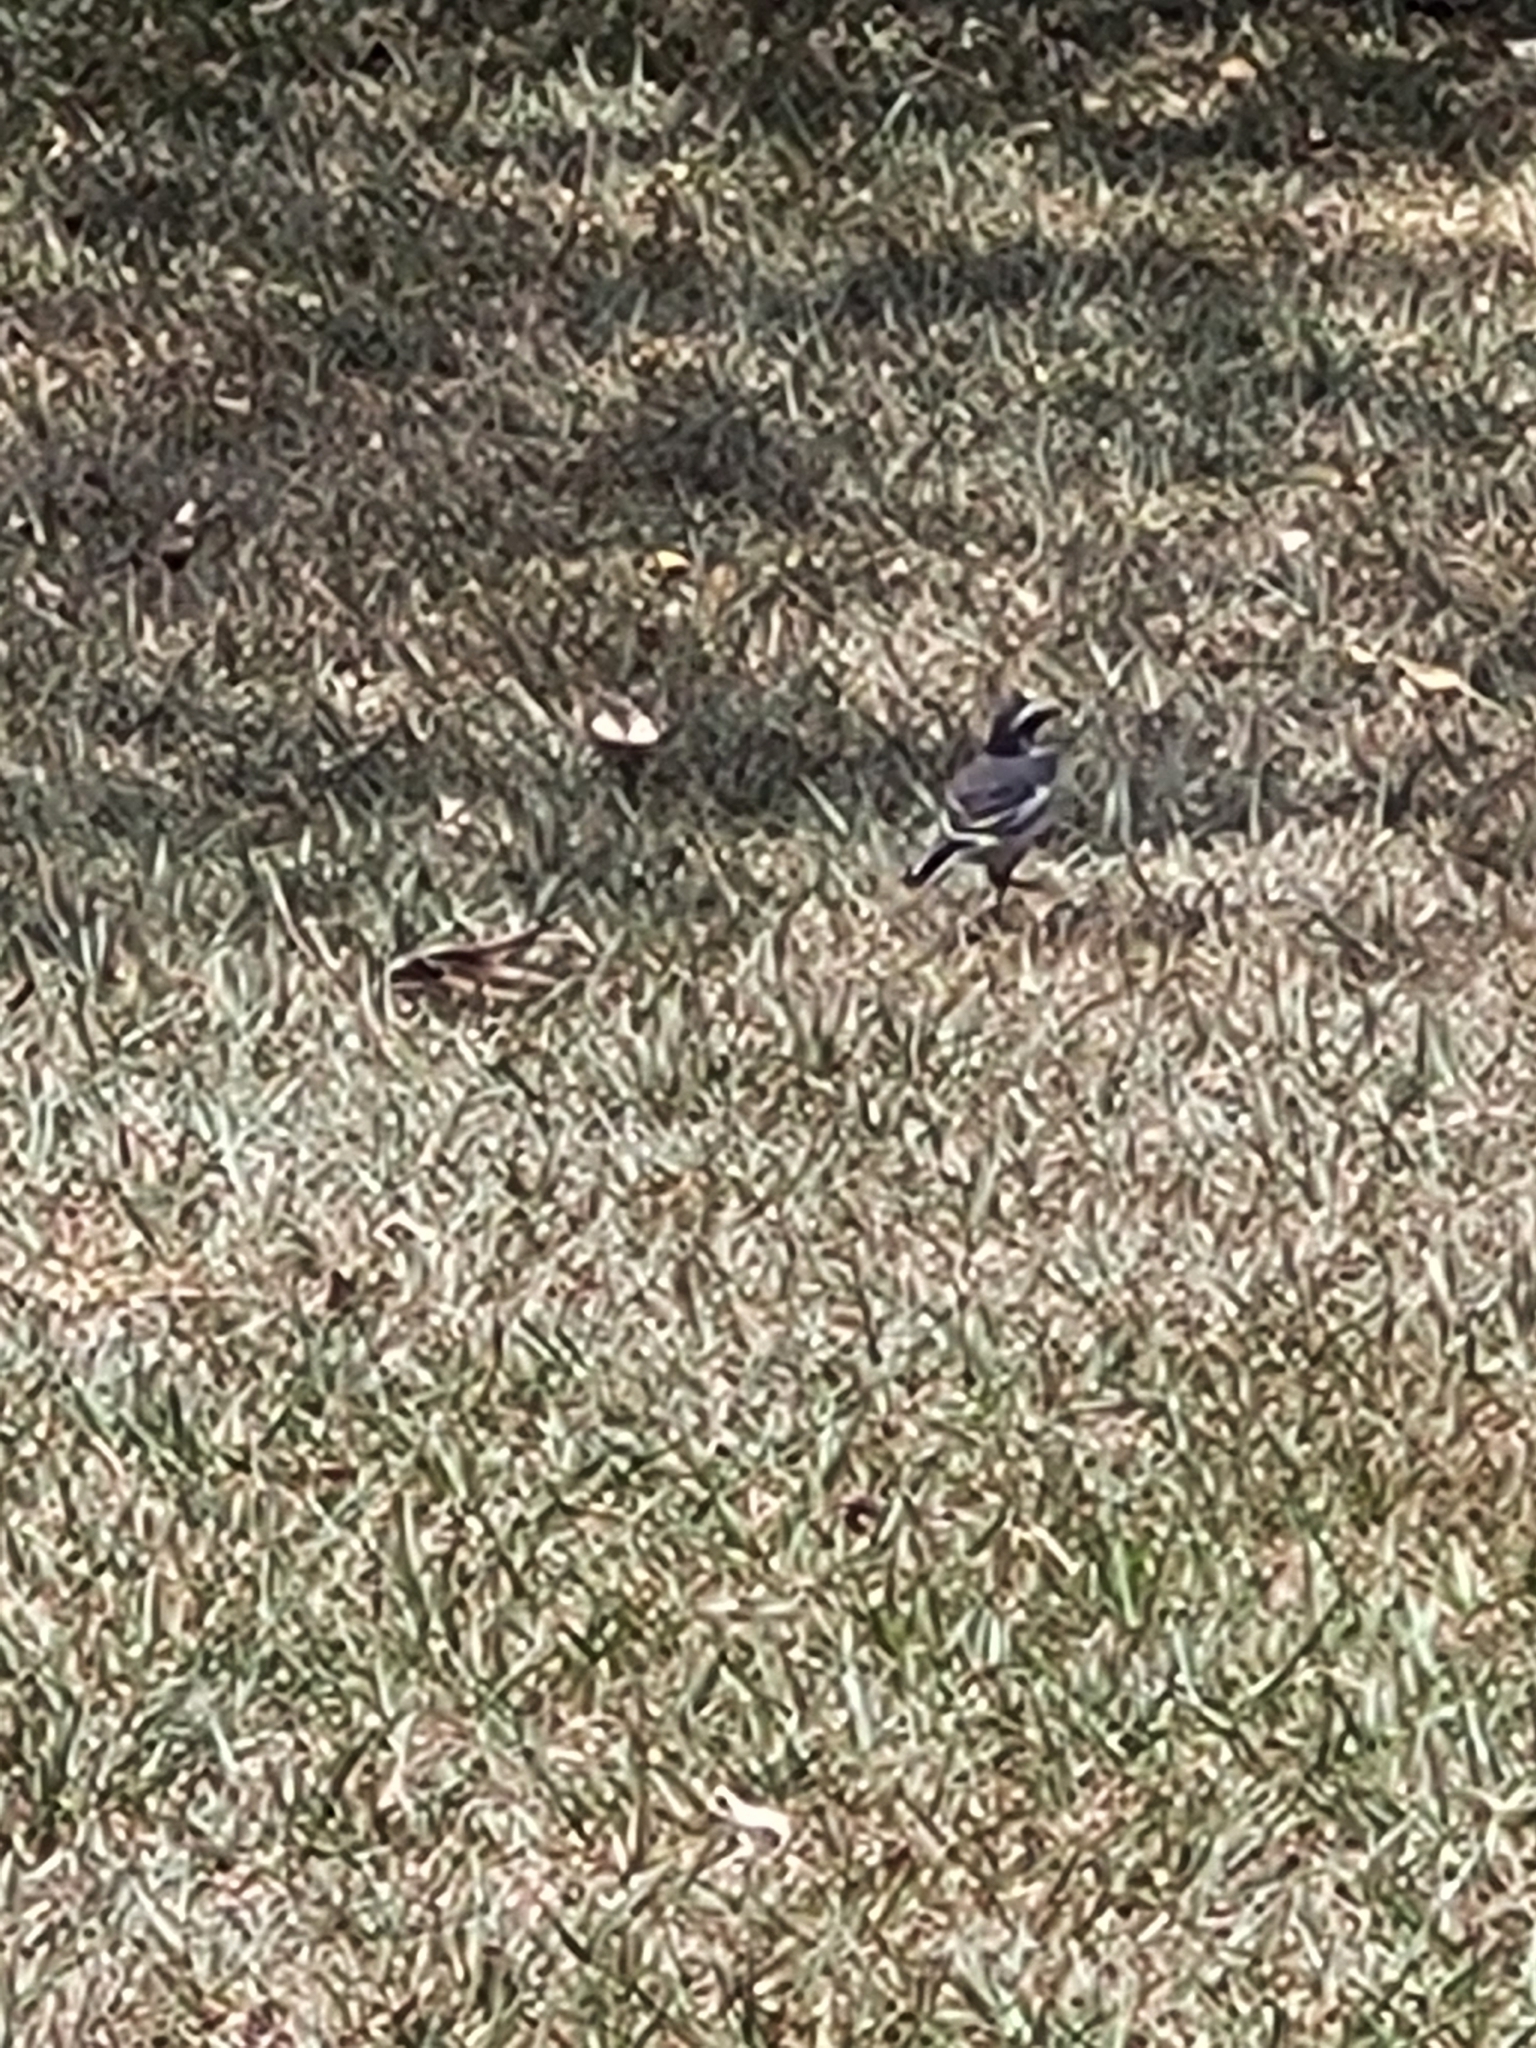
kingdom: Animalia
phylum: Chordata
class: Aves
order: Passeriformes
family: Motacillidae
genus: Motacilla
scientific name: Motacilla aguimp
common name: African pied wagtail
